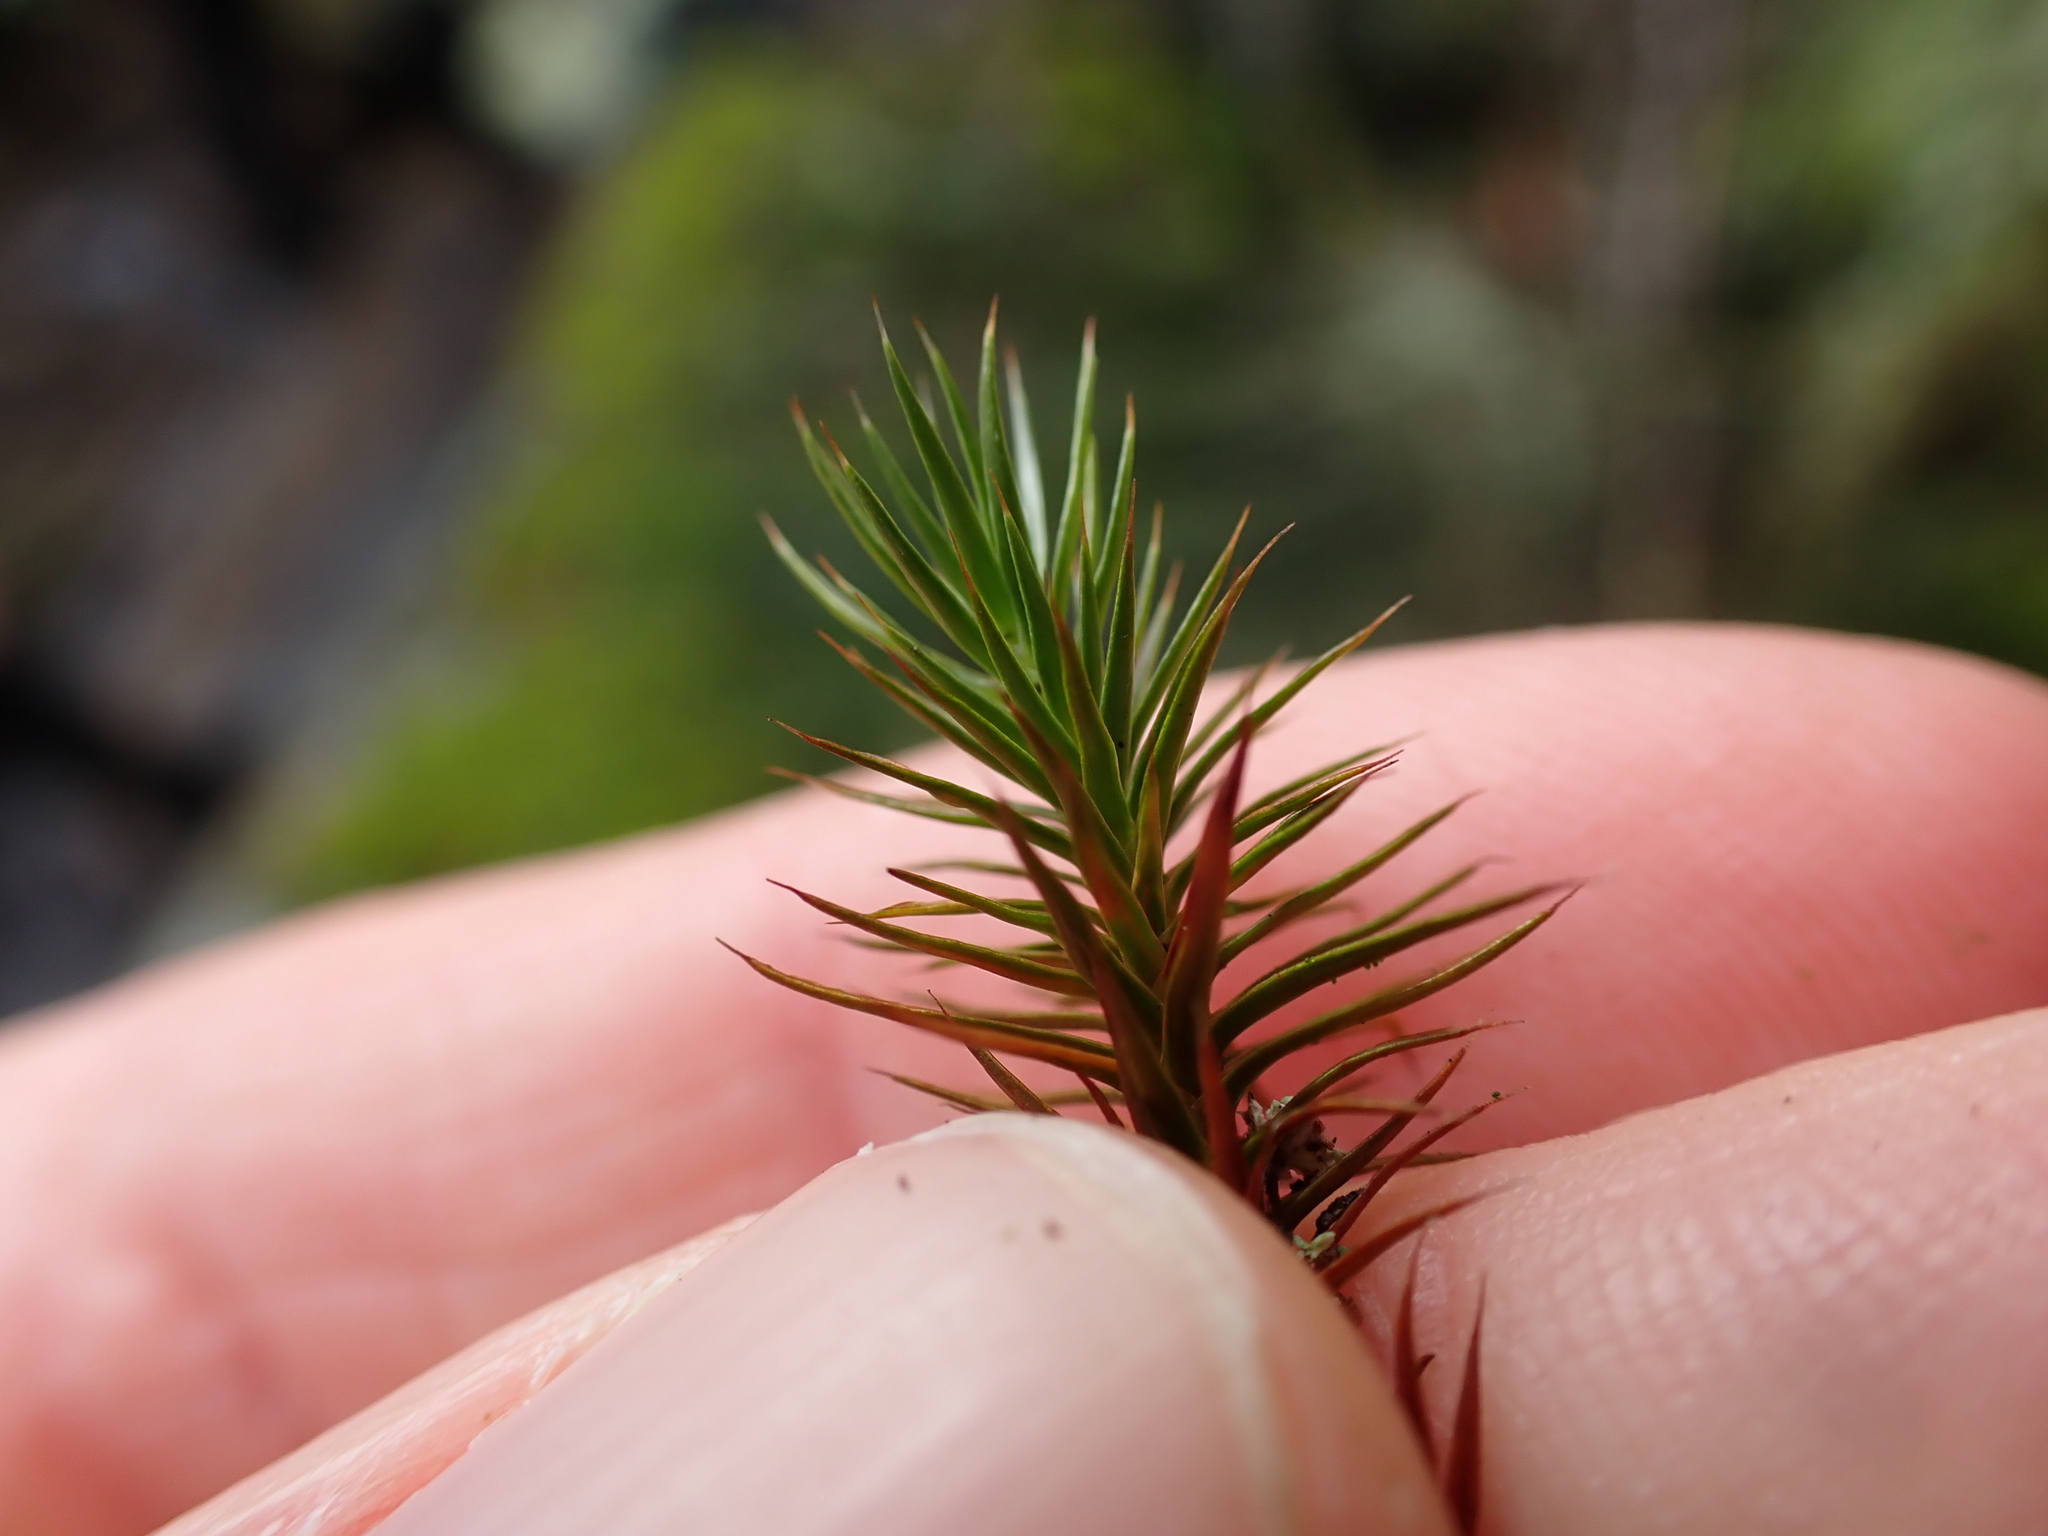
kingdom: Plantae
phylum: Bryophyta
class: Polytrichopsida
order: Polytrichales
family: Polytrichaceae
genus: Polytrichum
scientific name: Polytrichum juniperinum
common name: Juniper haircap moss
